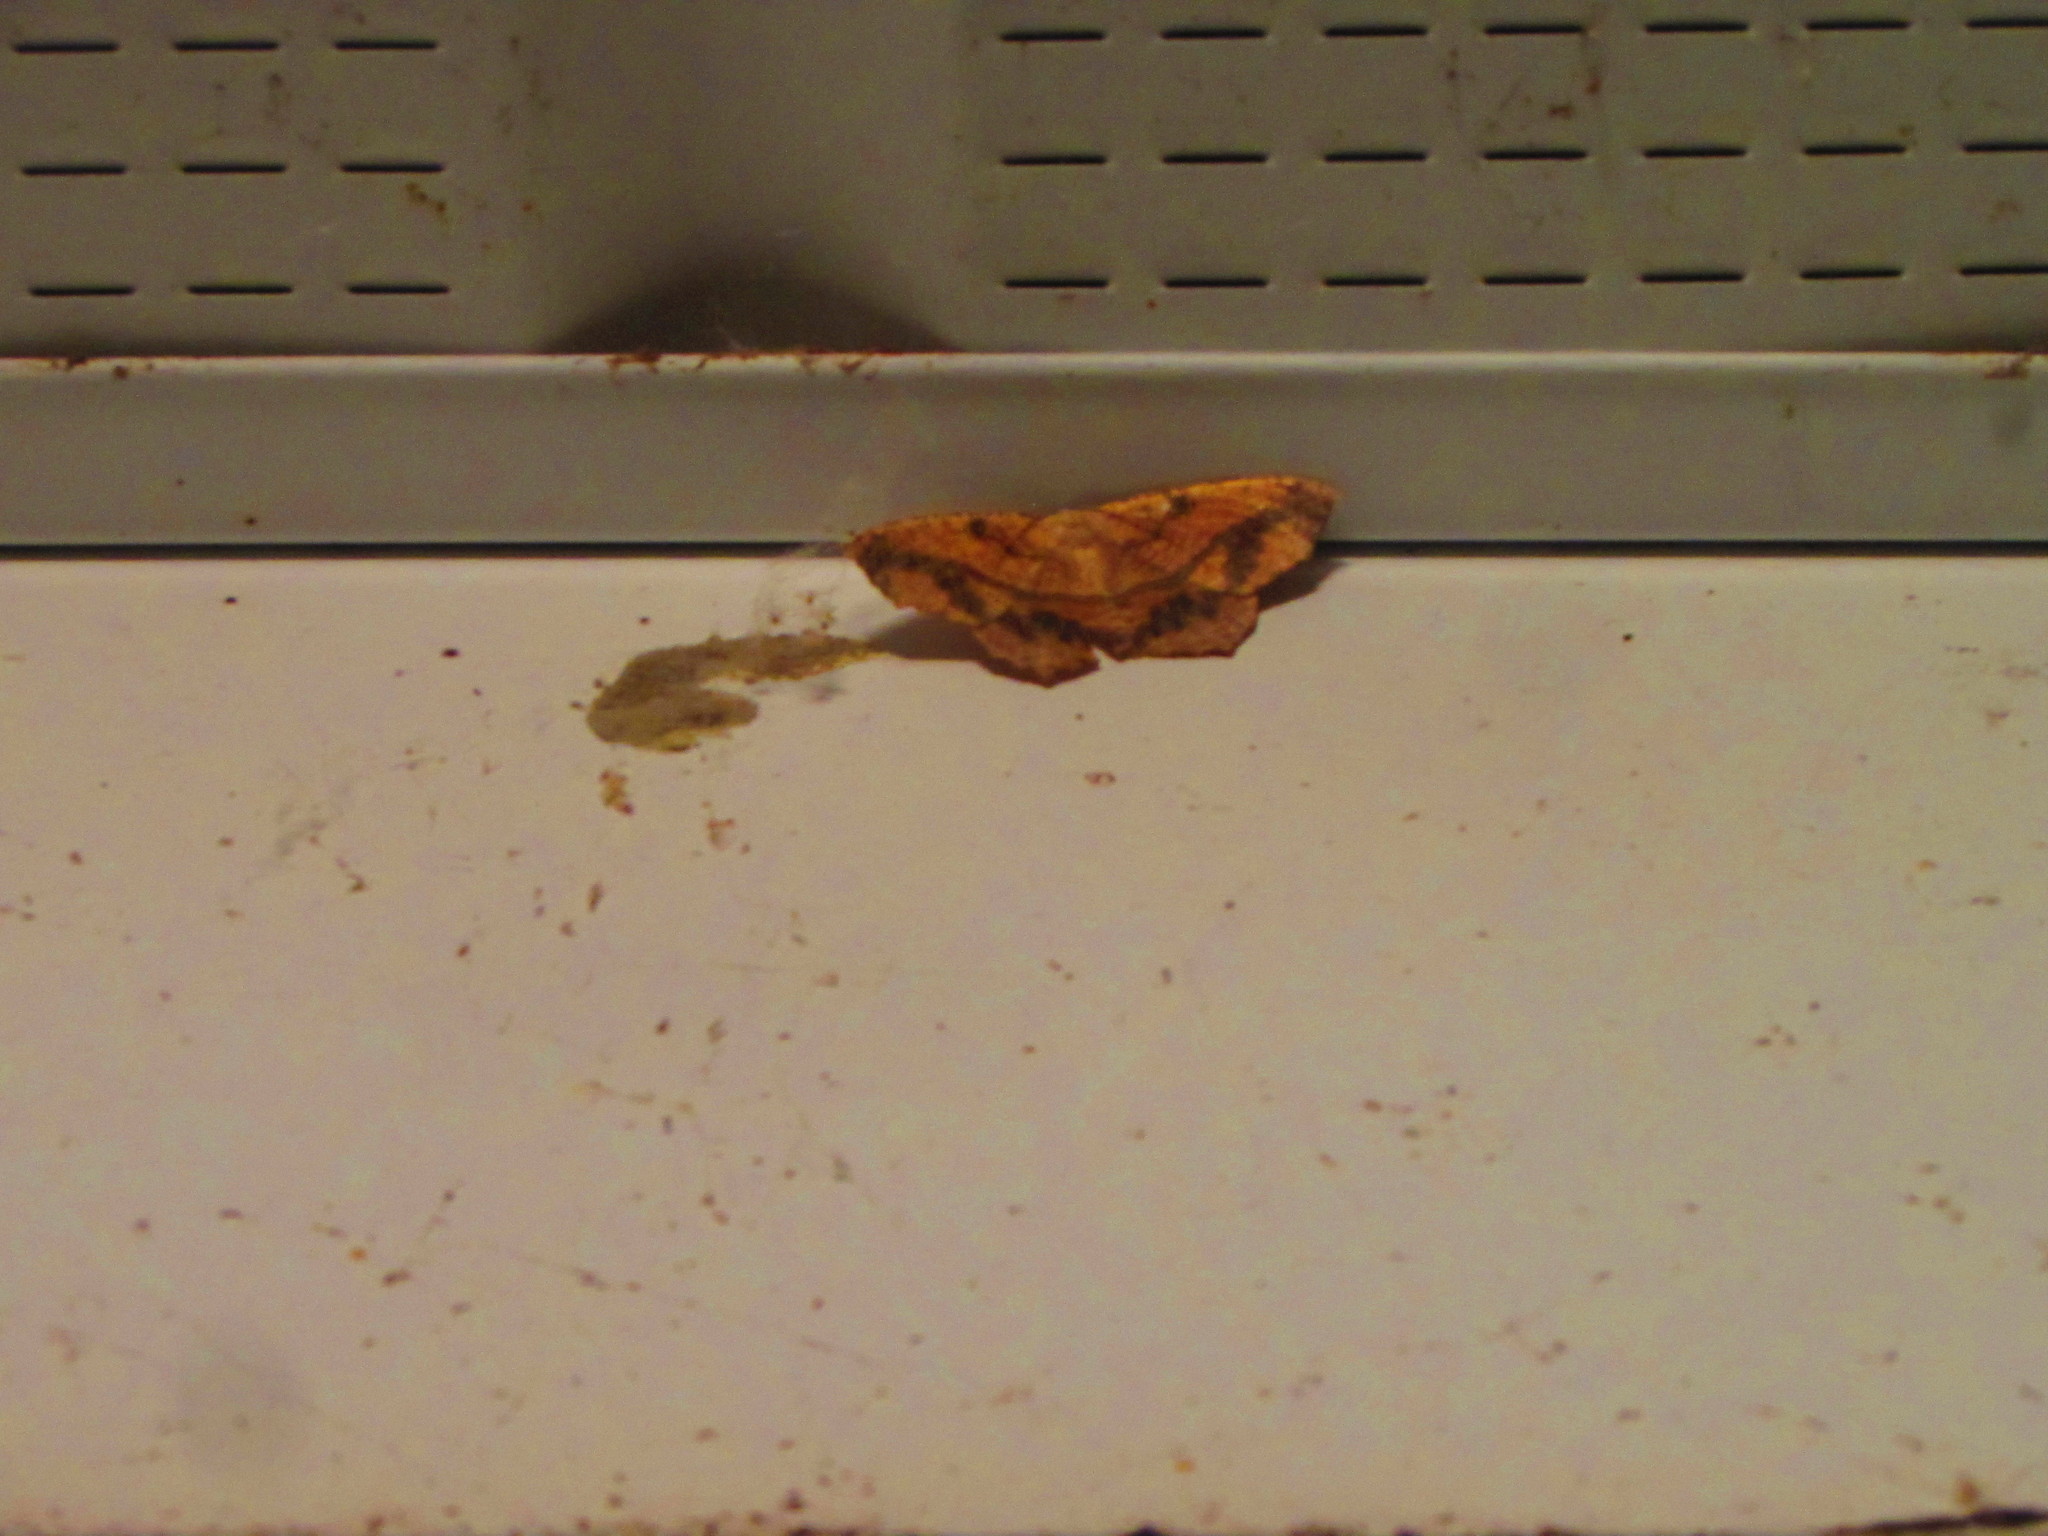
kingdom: Animalia
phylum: Arthropoda
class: Insecta
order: Lepidoptera
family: Geometridae
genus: Prochoerodes
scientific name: Prochoerodes lineola
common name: Large maple spanworm
